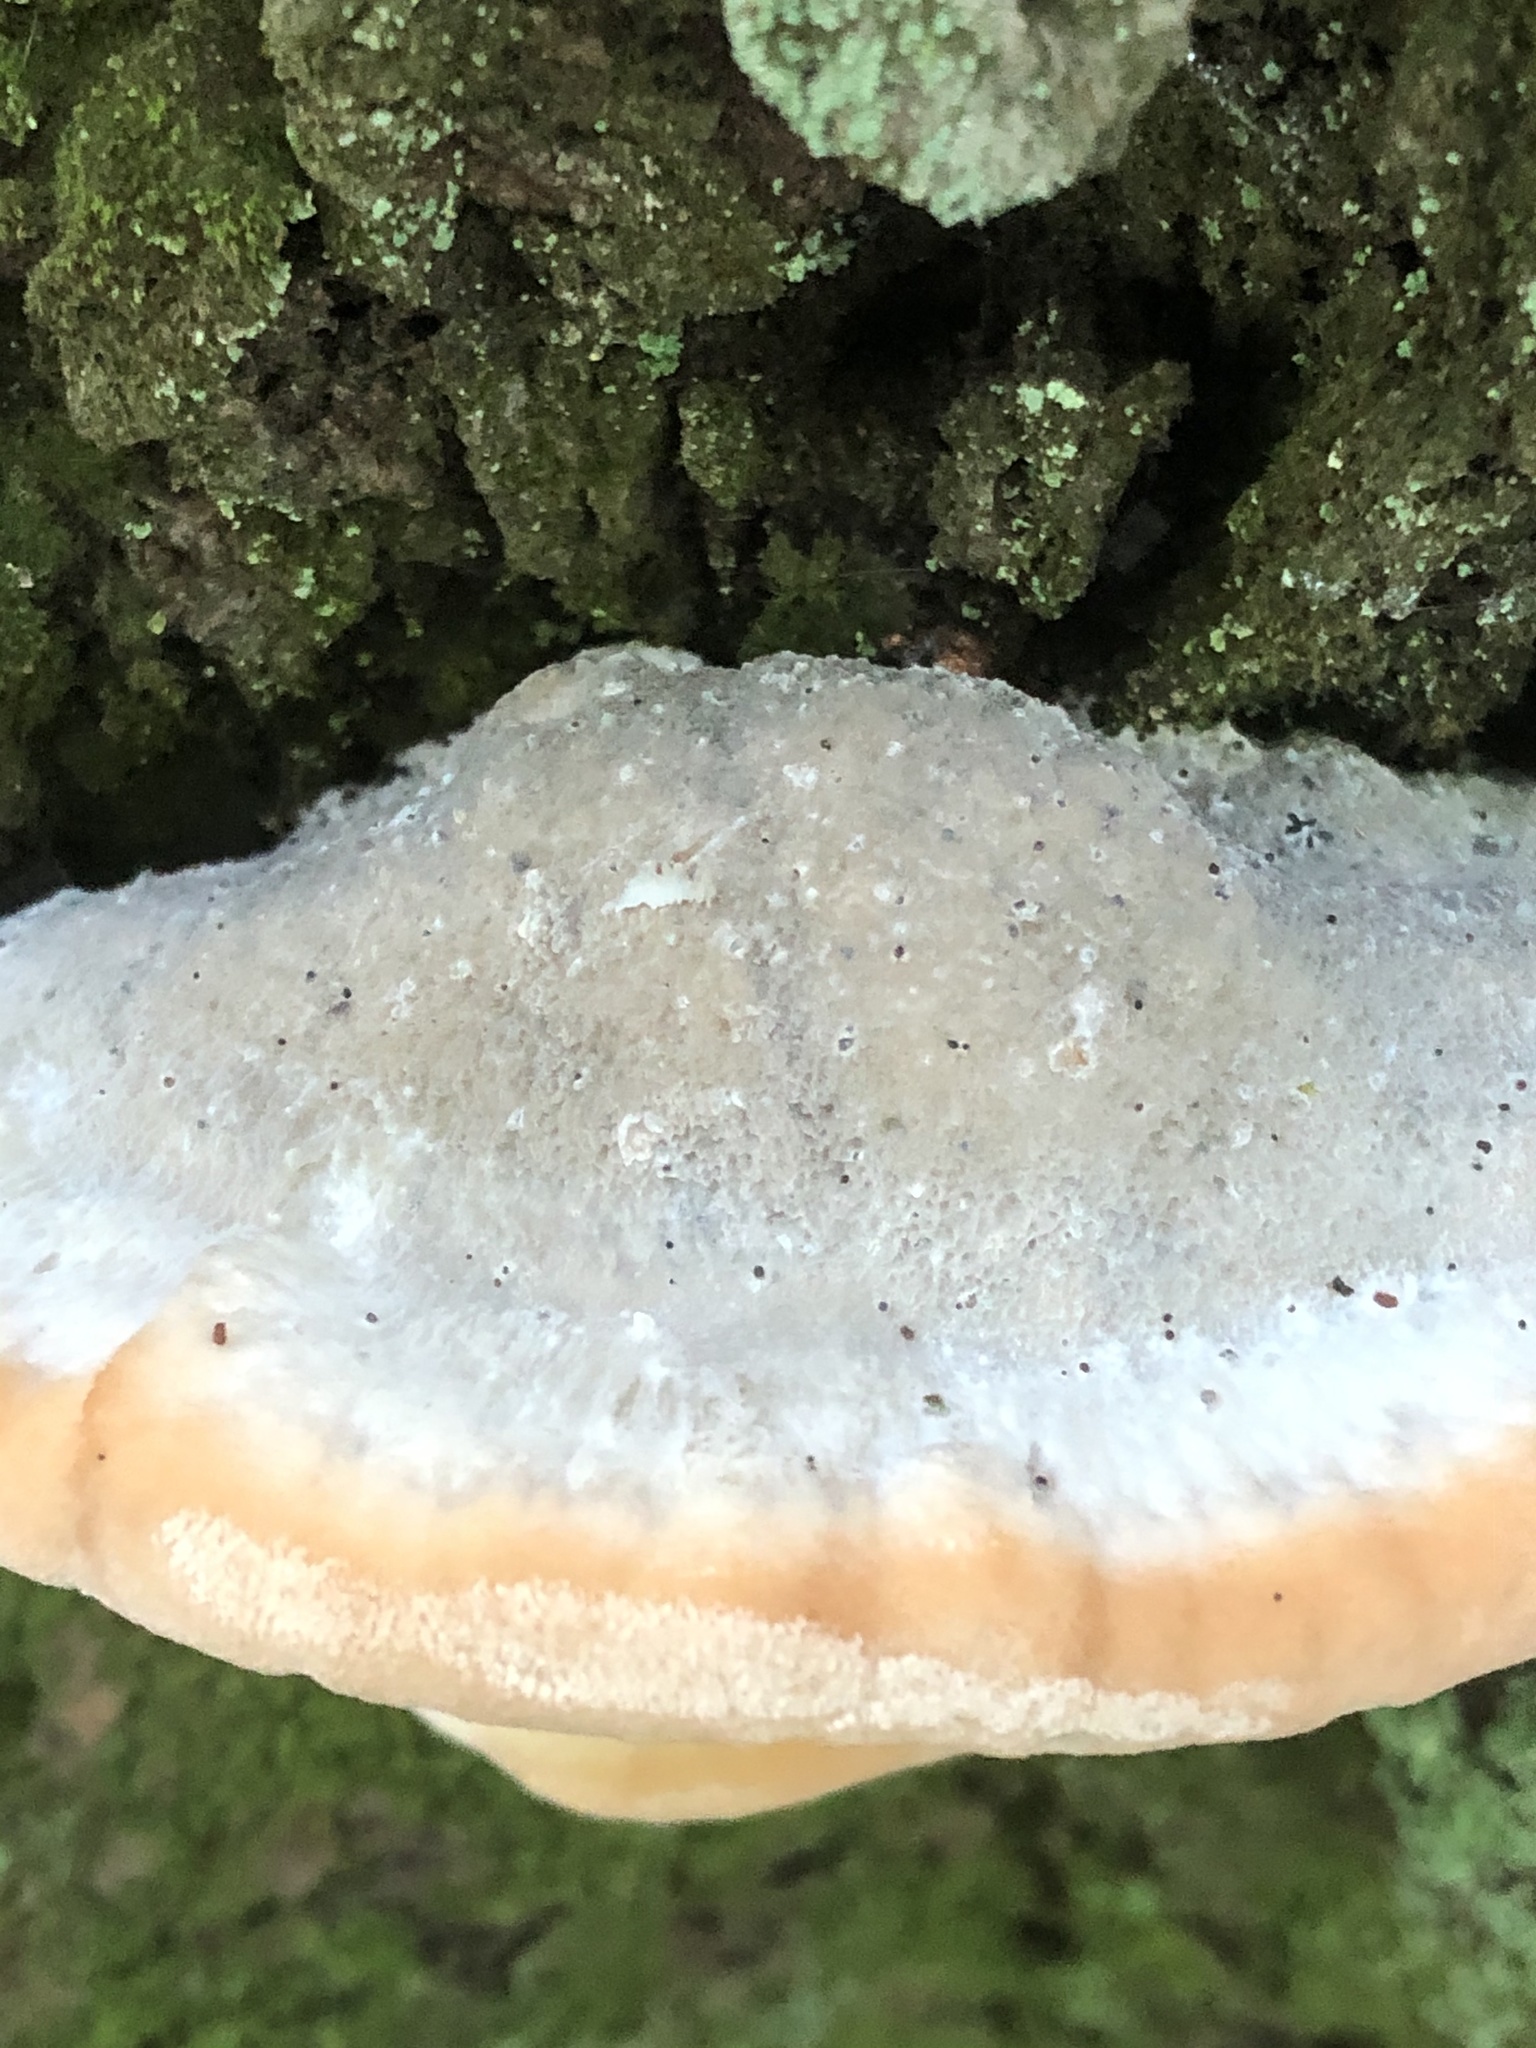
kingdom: Fungi
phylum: Basidiomycota
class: Agaricomycetes
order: Polyporales
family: Fomitopsidaceae
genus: Niveoporofomes
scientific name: Niveoporofomes spraguei
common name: Green cheese polypore
